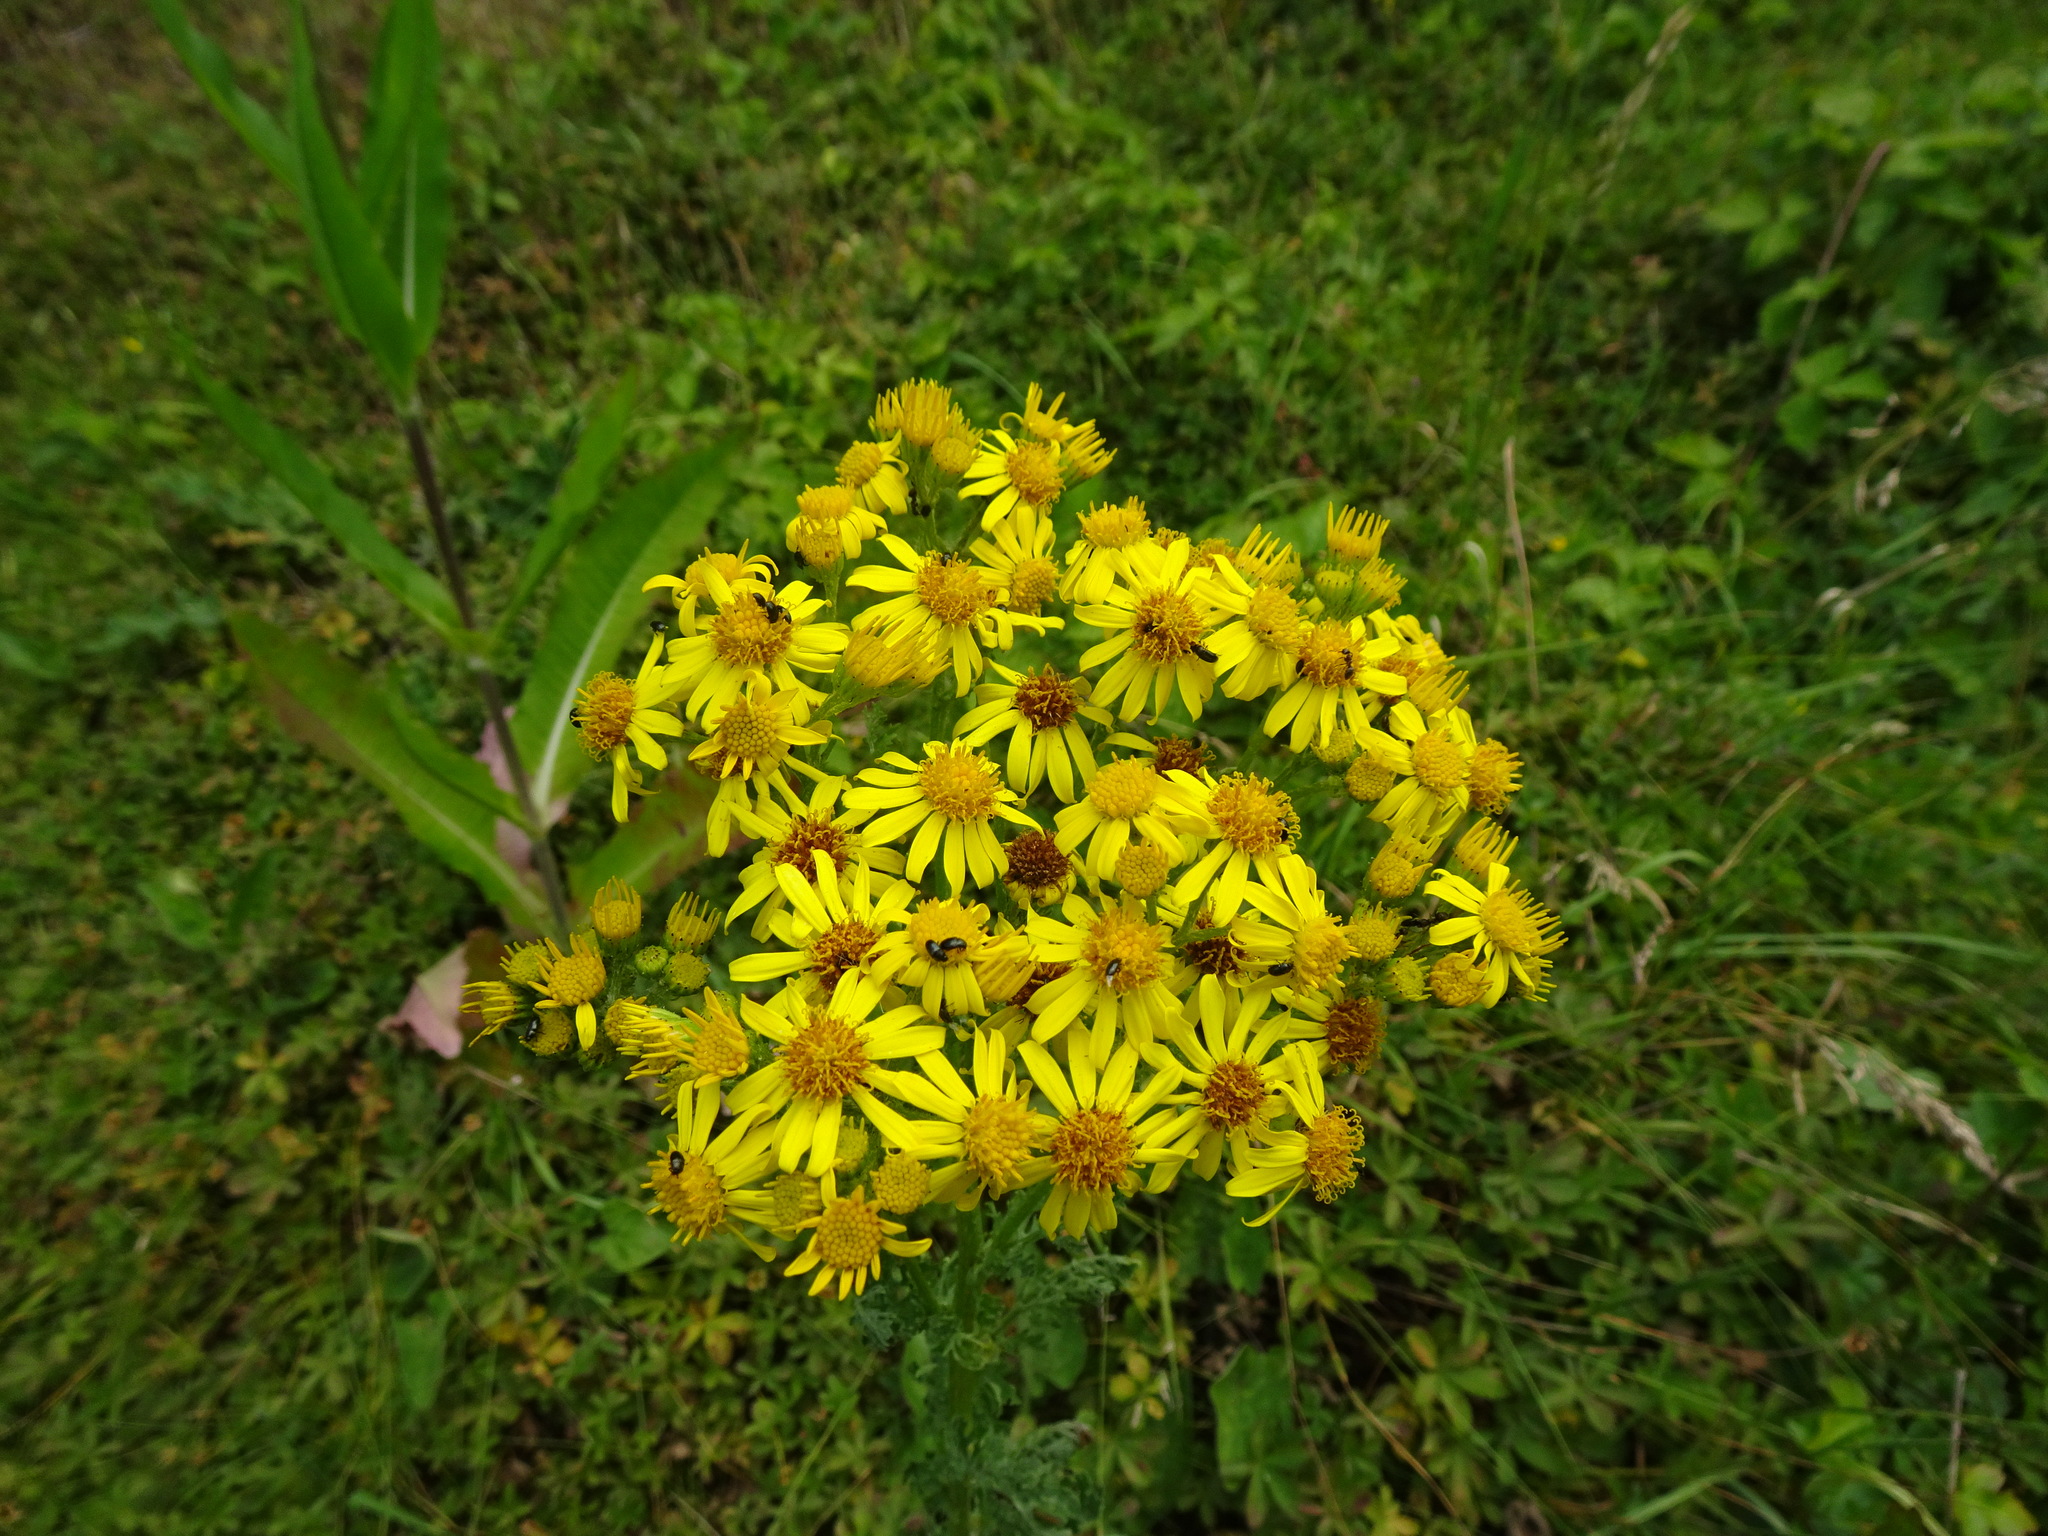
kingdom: Plantae
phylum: Tracheophyta
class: Magnoliopsida
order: Asterales
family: Asteraceae
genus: Jacobaea
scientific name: Jacobaea vulgaris
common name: Stinking willie
